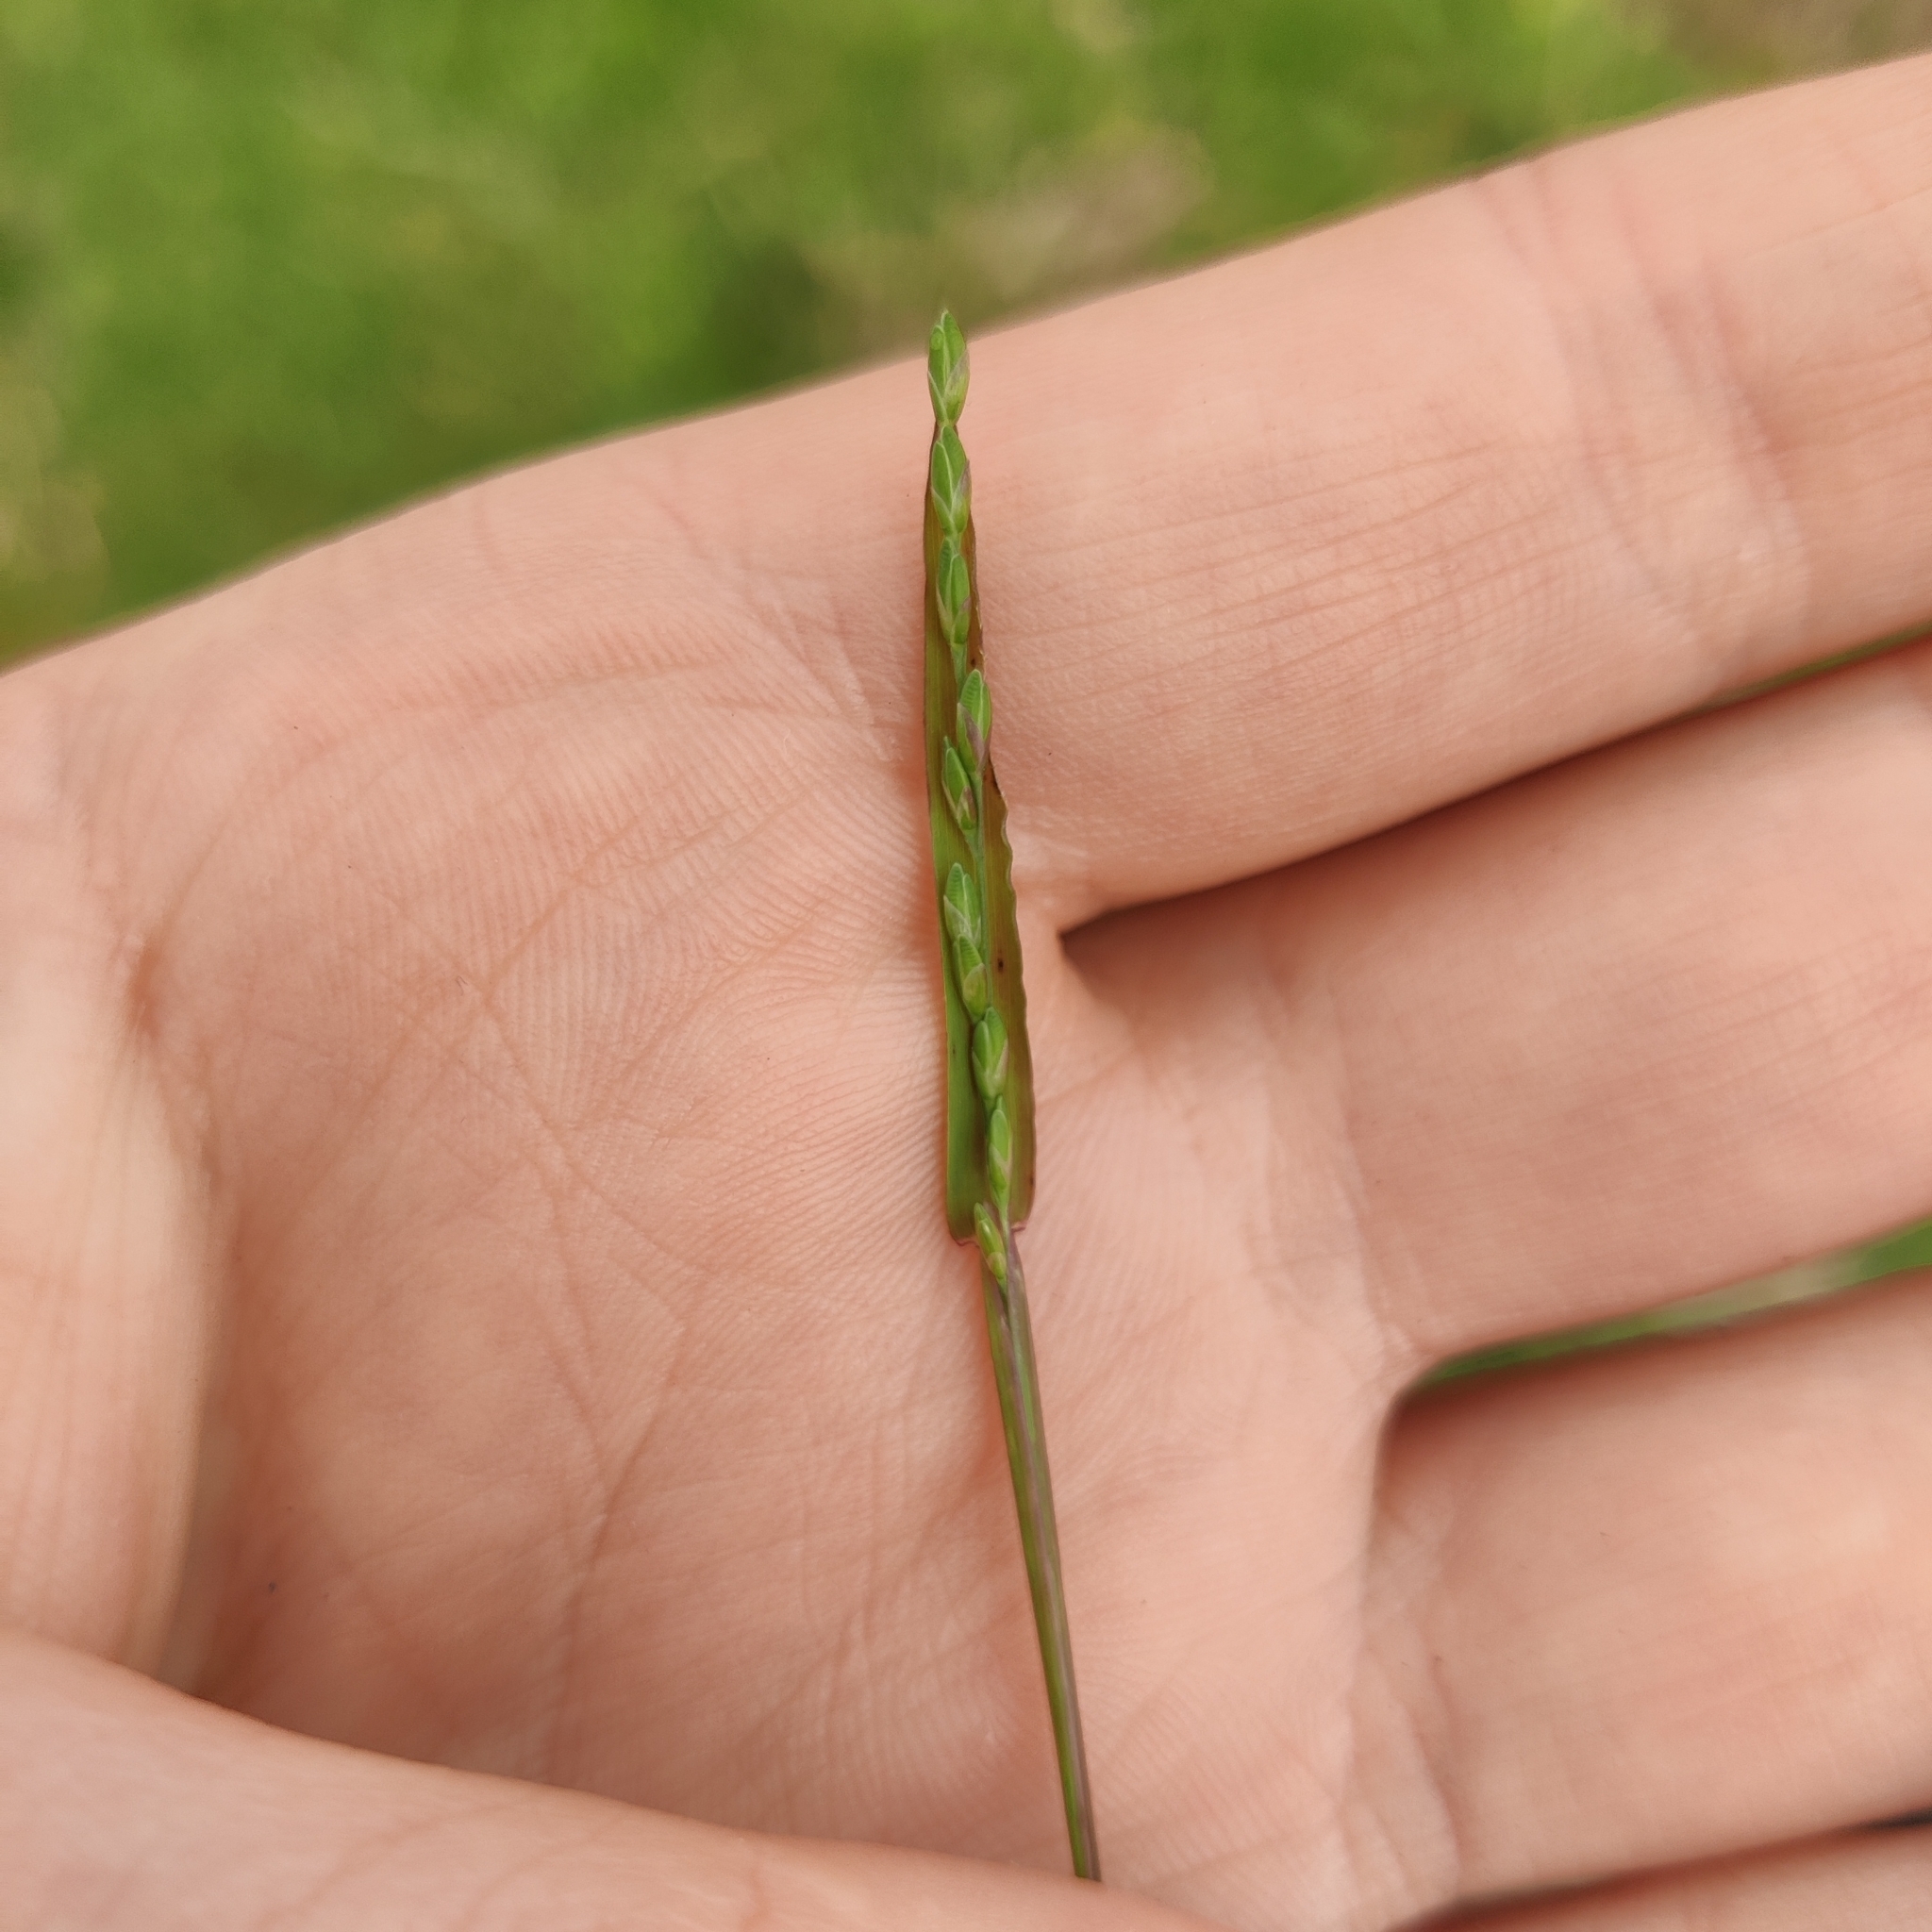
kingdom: Plantae
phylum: Tracheophyta
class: Liliopsida
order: Poales
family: Poaceae
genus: Ehrharta
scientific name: Ehrharta erecta
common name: Panic veldtgrass
